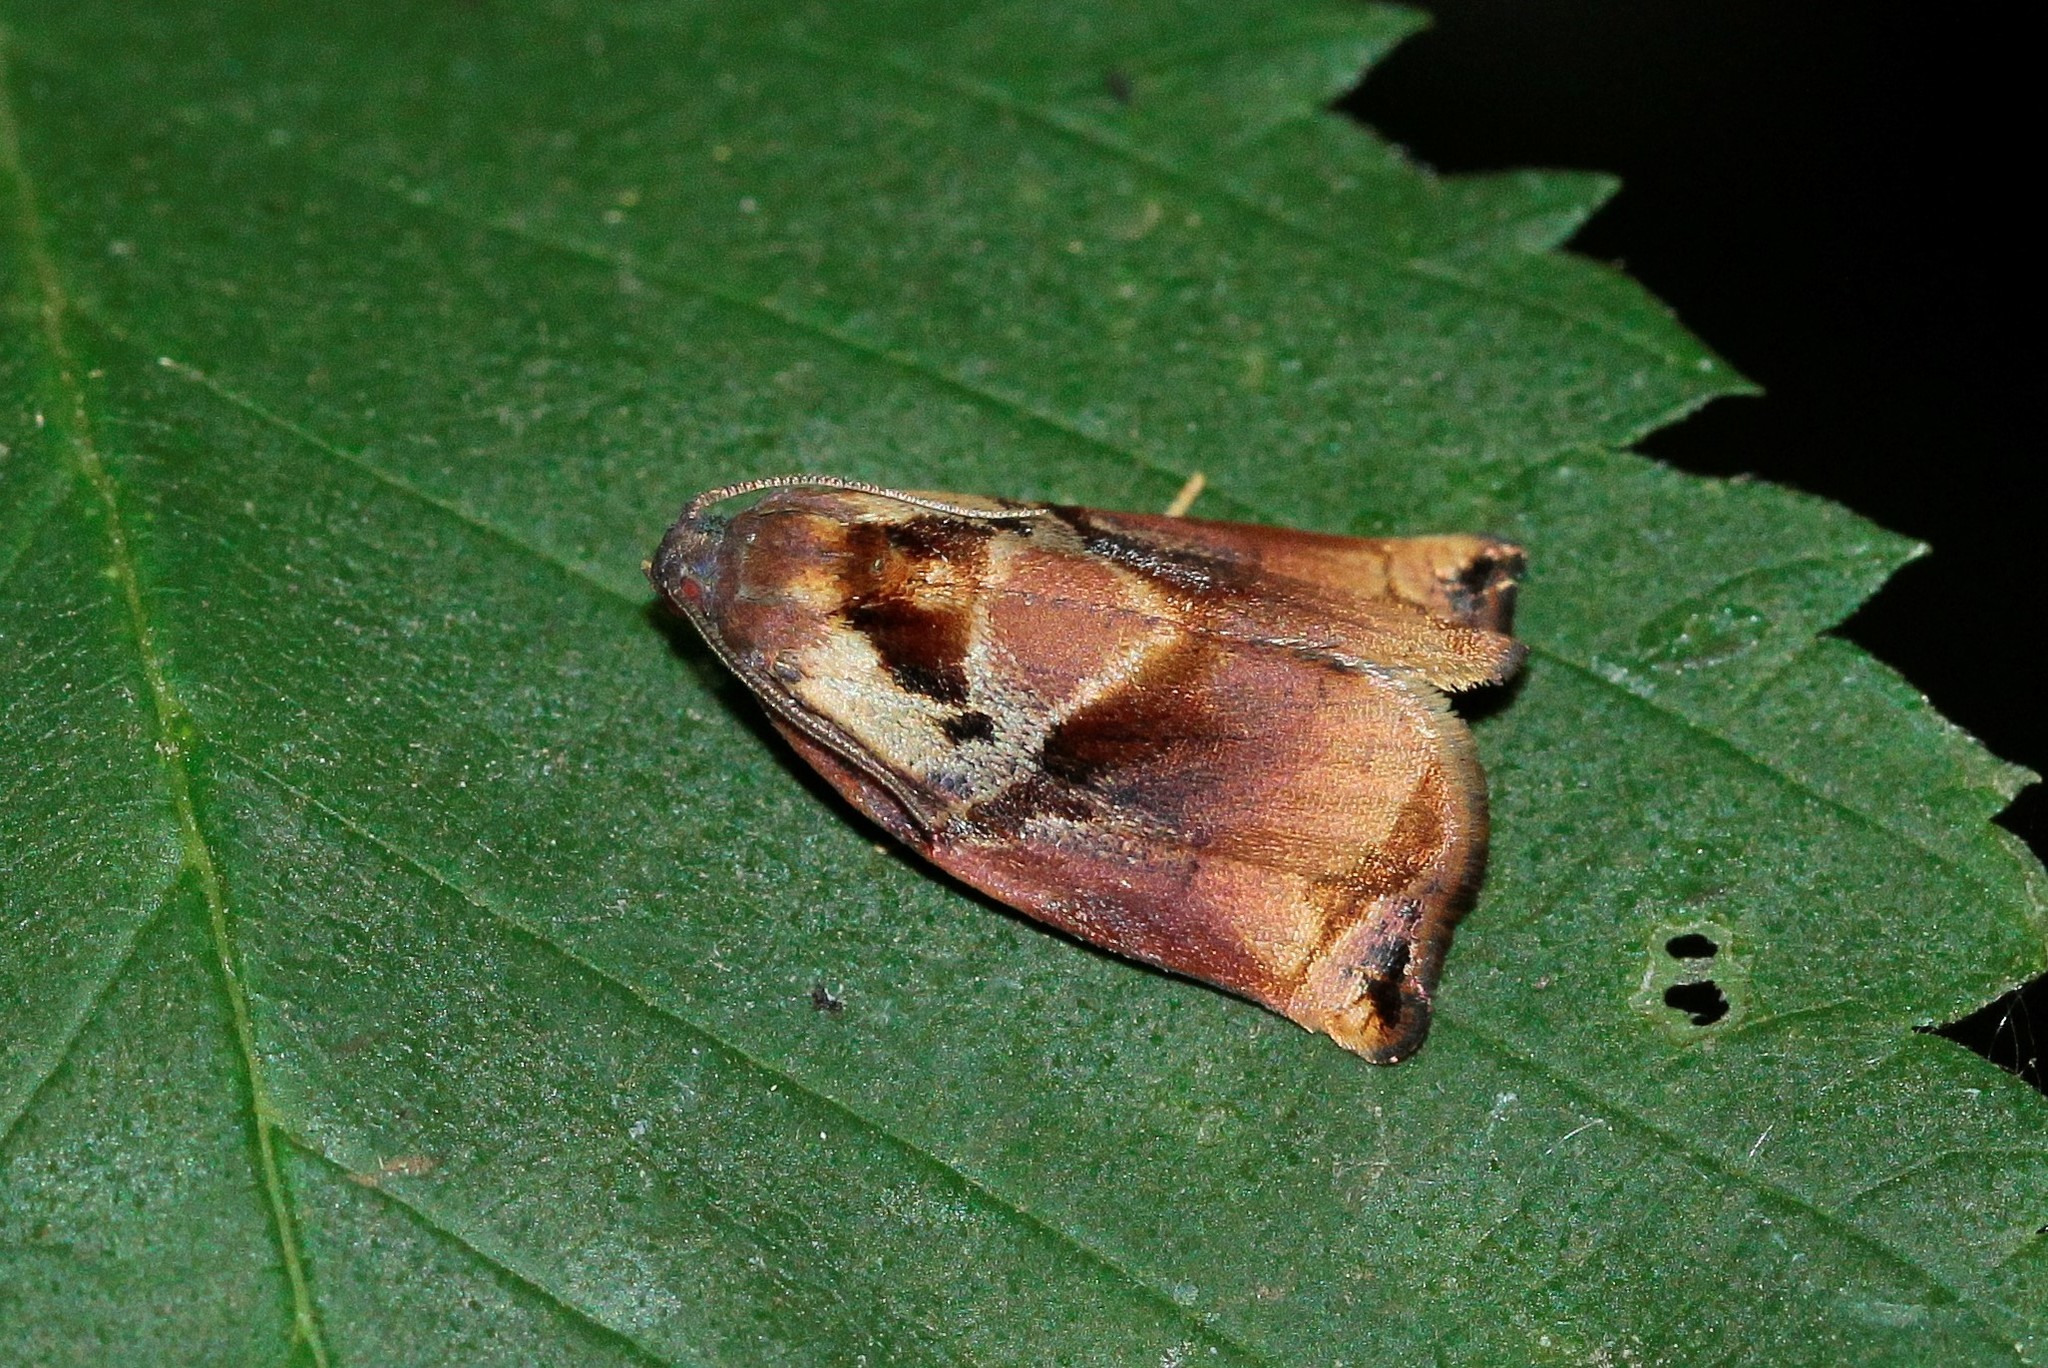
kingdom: Animalia
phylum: Arthropoda
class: Insecta
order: Lepidoptera
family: Tortricidae
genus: Archips
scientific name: Archips podana
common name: Large fruit-tree tortrix
